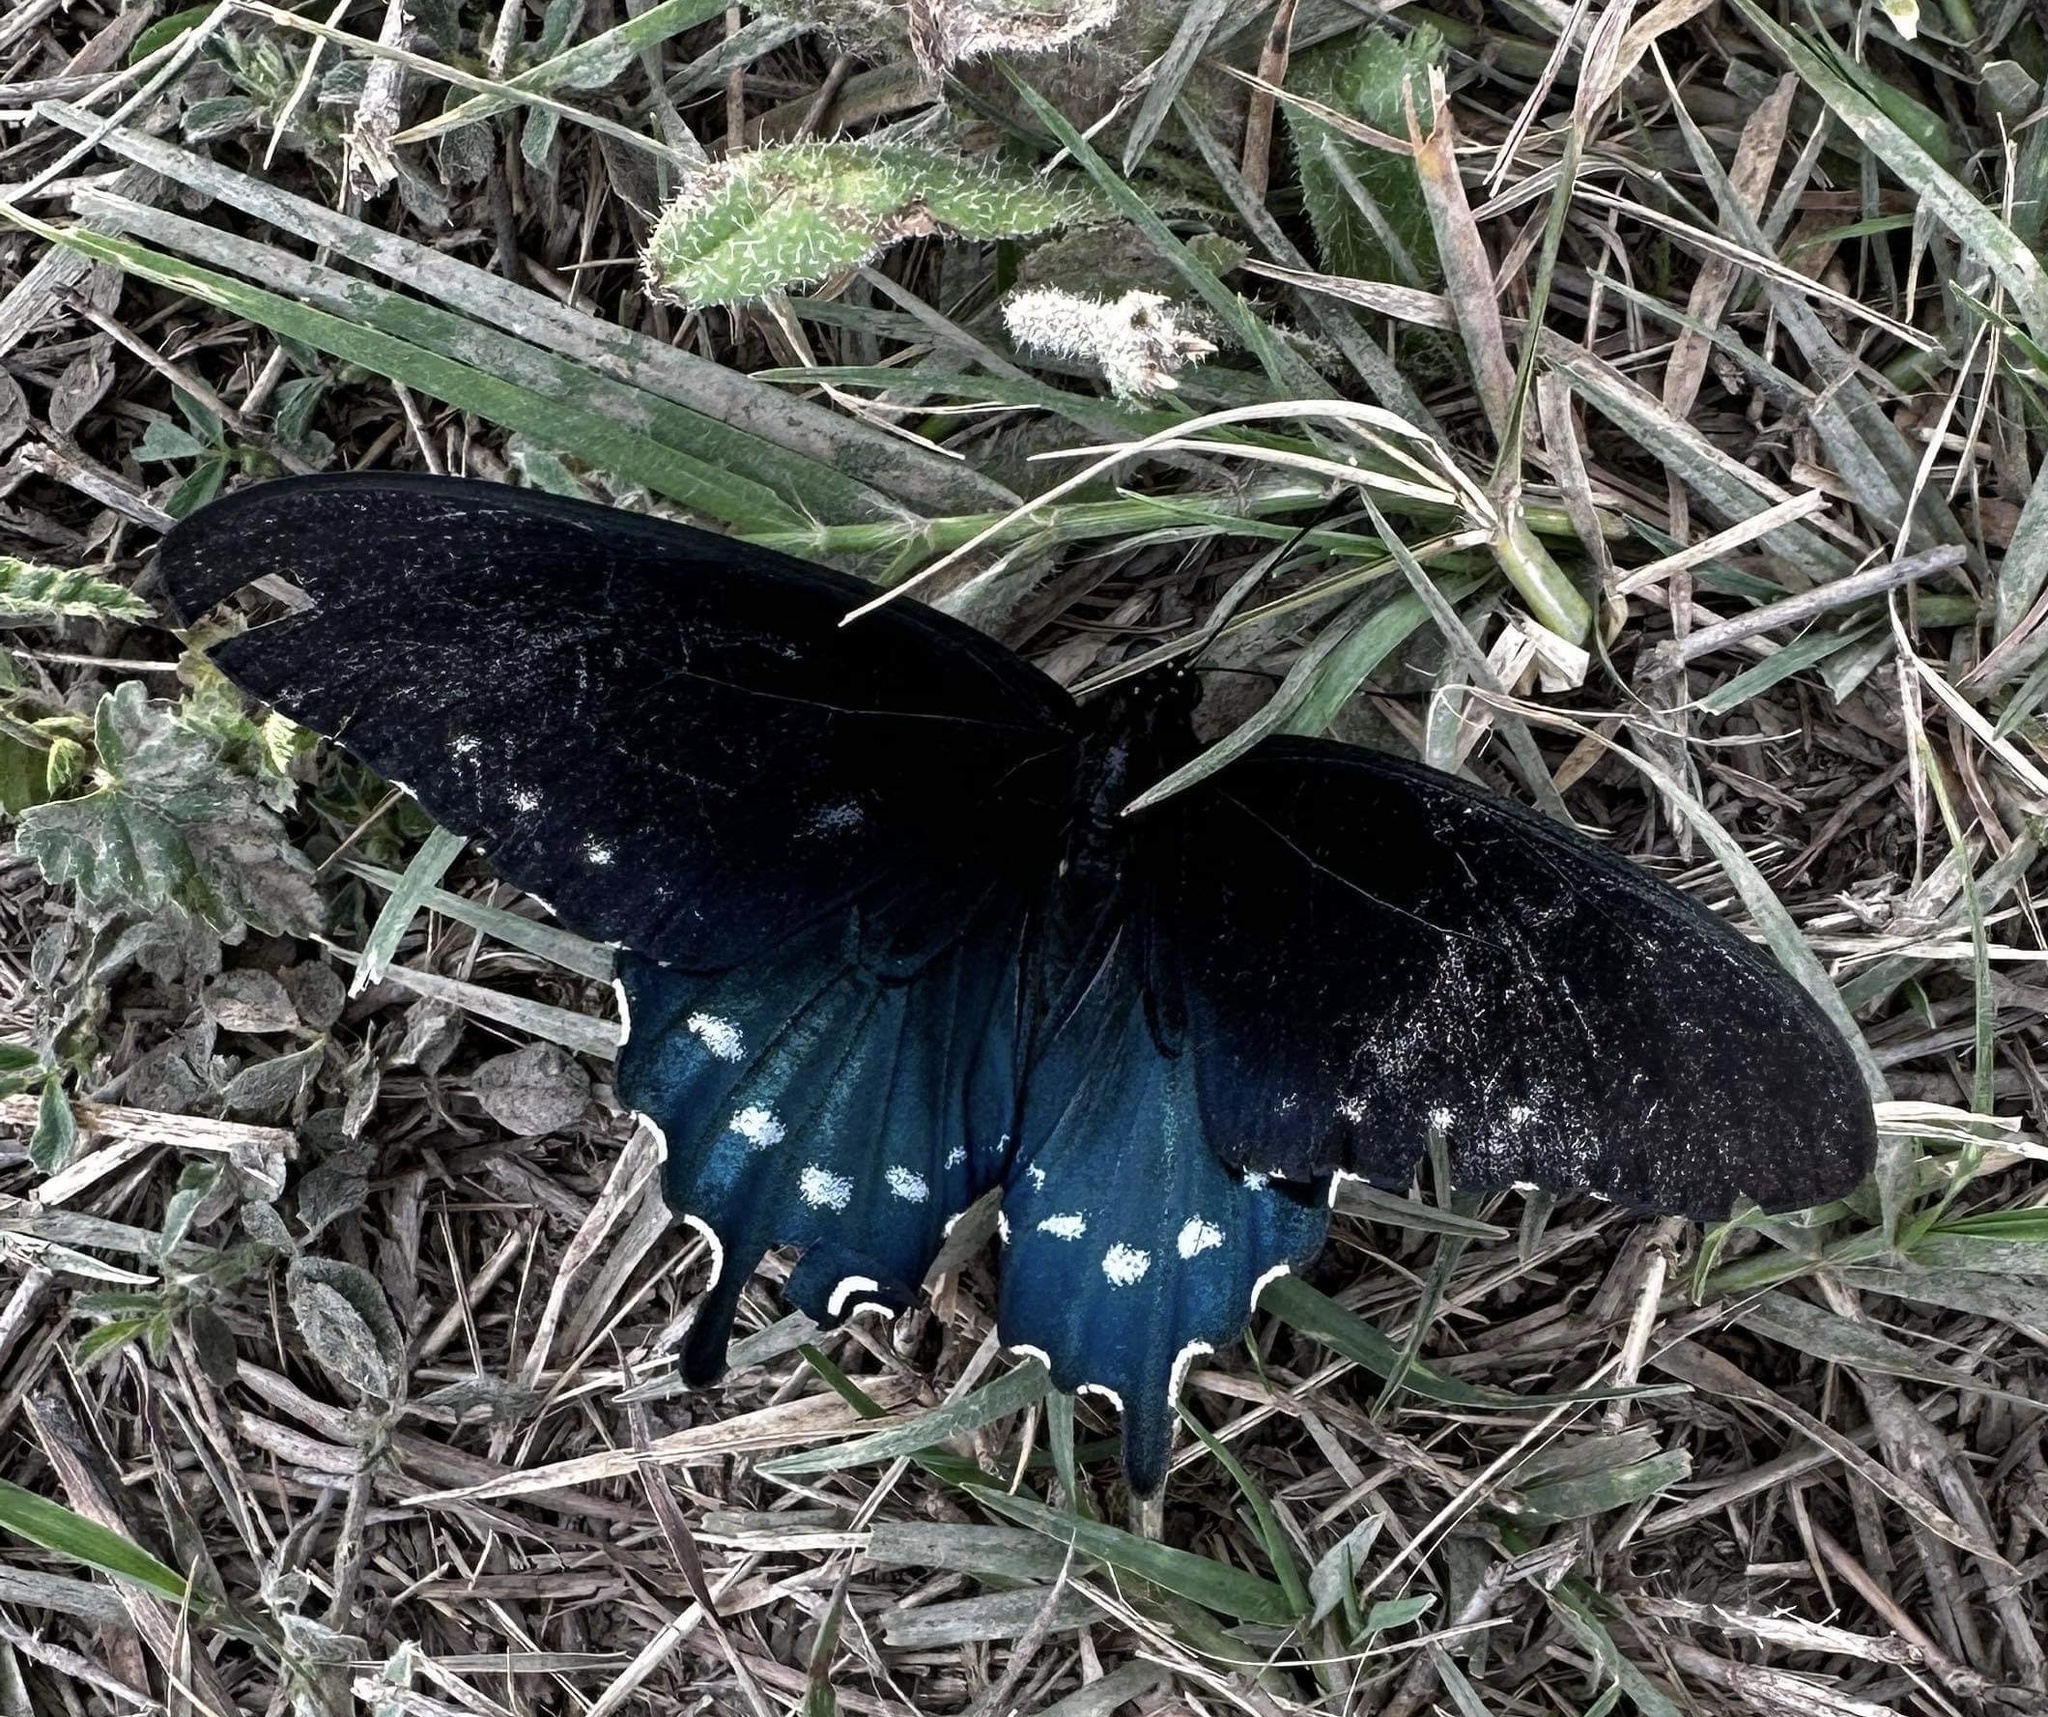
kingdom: Animalia
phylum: Arthropoda
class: Insecta
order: Lepidoptera
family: Papilionidae
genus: Battus
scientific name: Battus philenor
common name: Pipevine swallowtail
